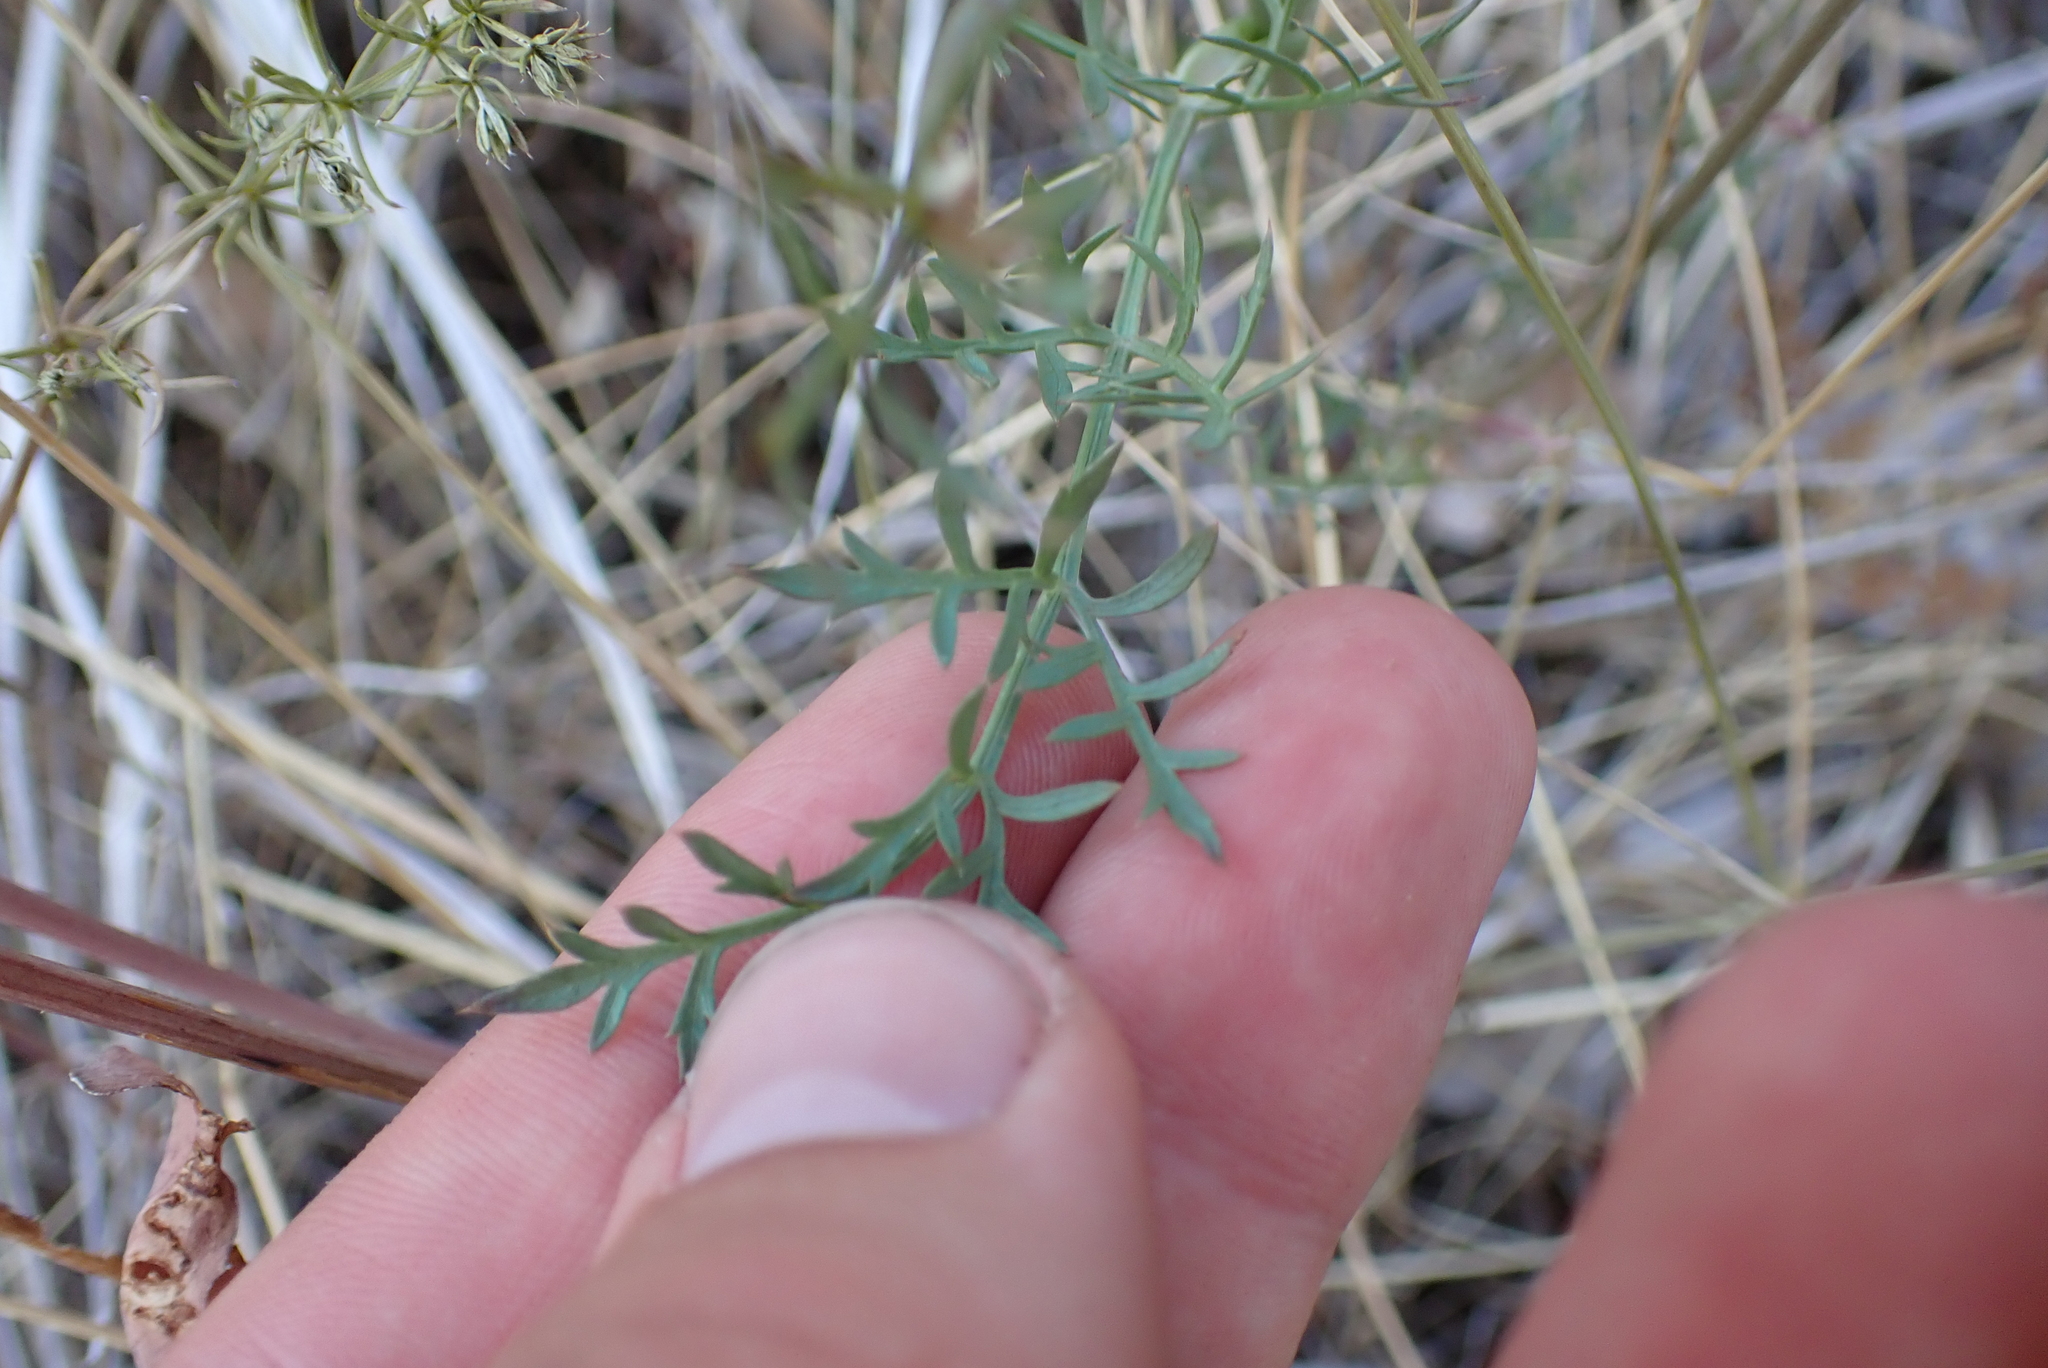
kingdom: Plantae
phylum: Tracheophyta
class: Magnoliopsida
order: Apiales
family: Apiaceae
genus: Daucus
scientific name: Daucus carota
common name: Wild carrot
